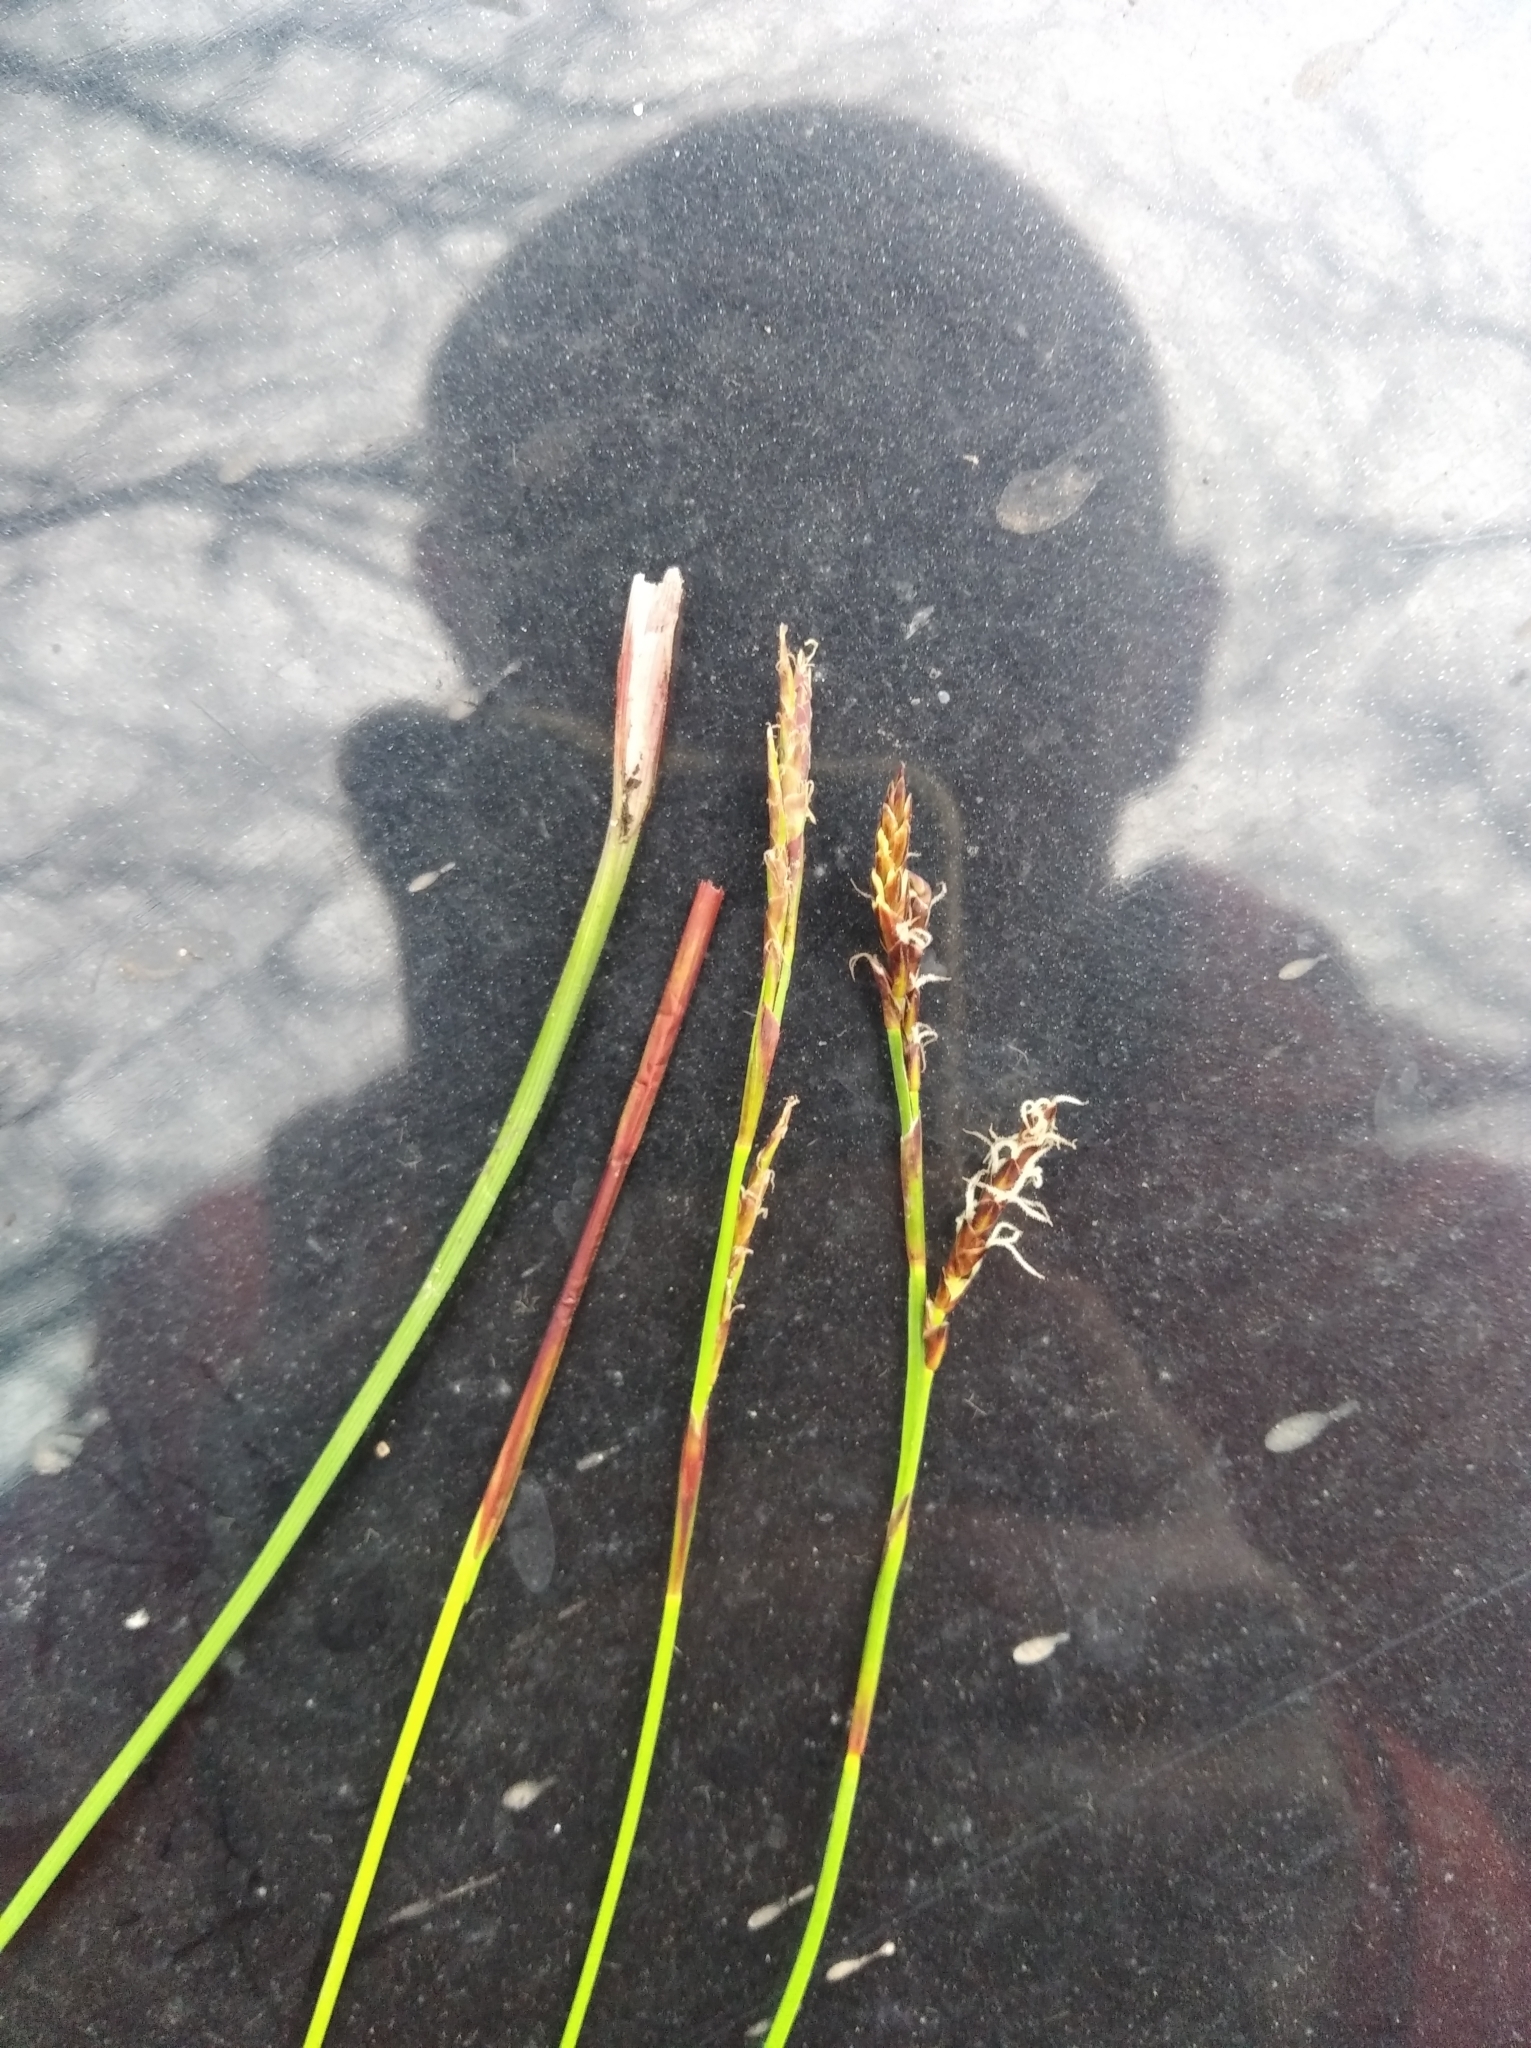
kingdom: Plantae
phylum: Tracheophyta
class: Liliopsida
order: Poales
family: Cyperaceae
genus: Carex
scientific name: Carex digitata
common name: Fingered sedge
